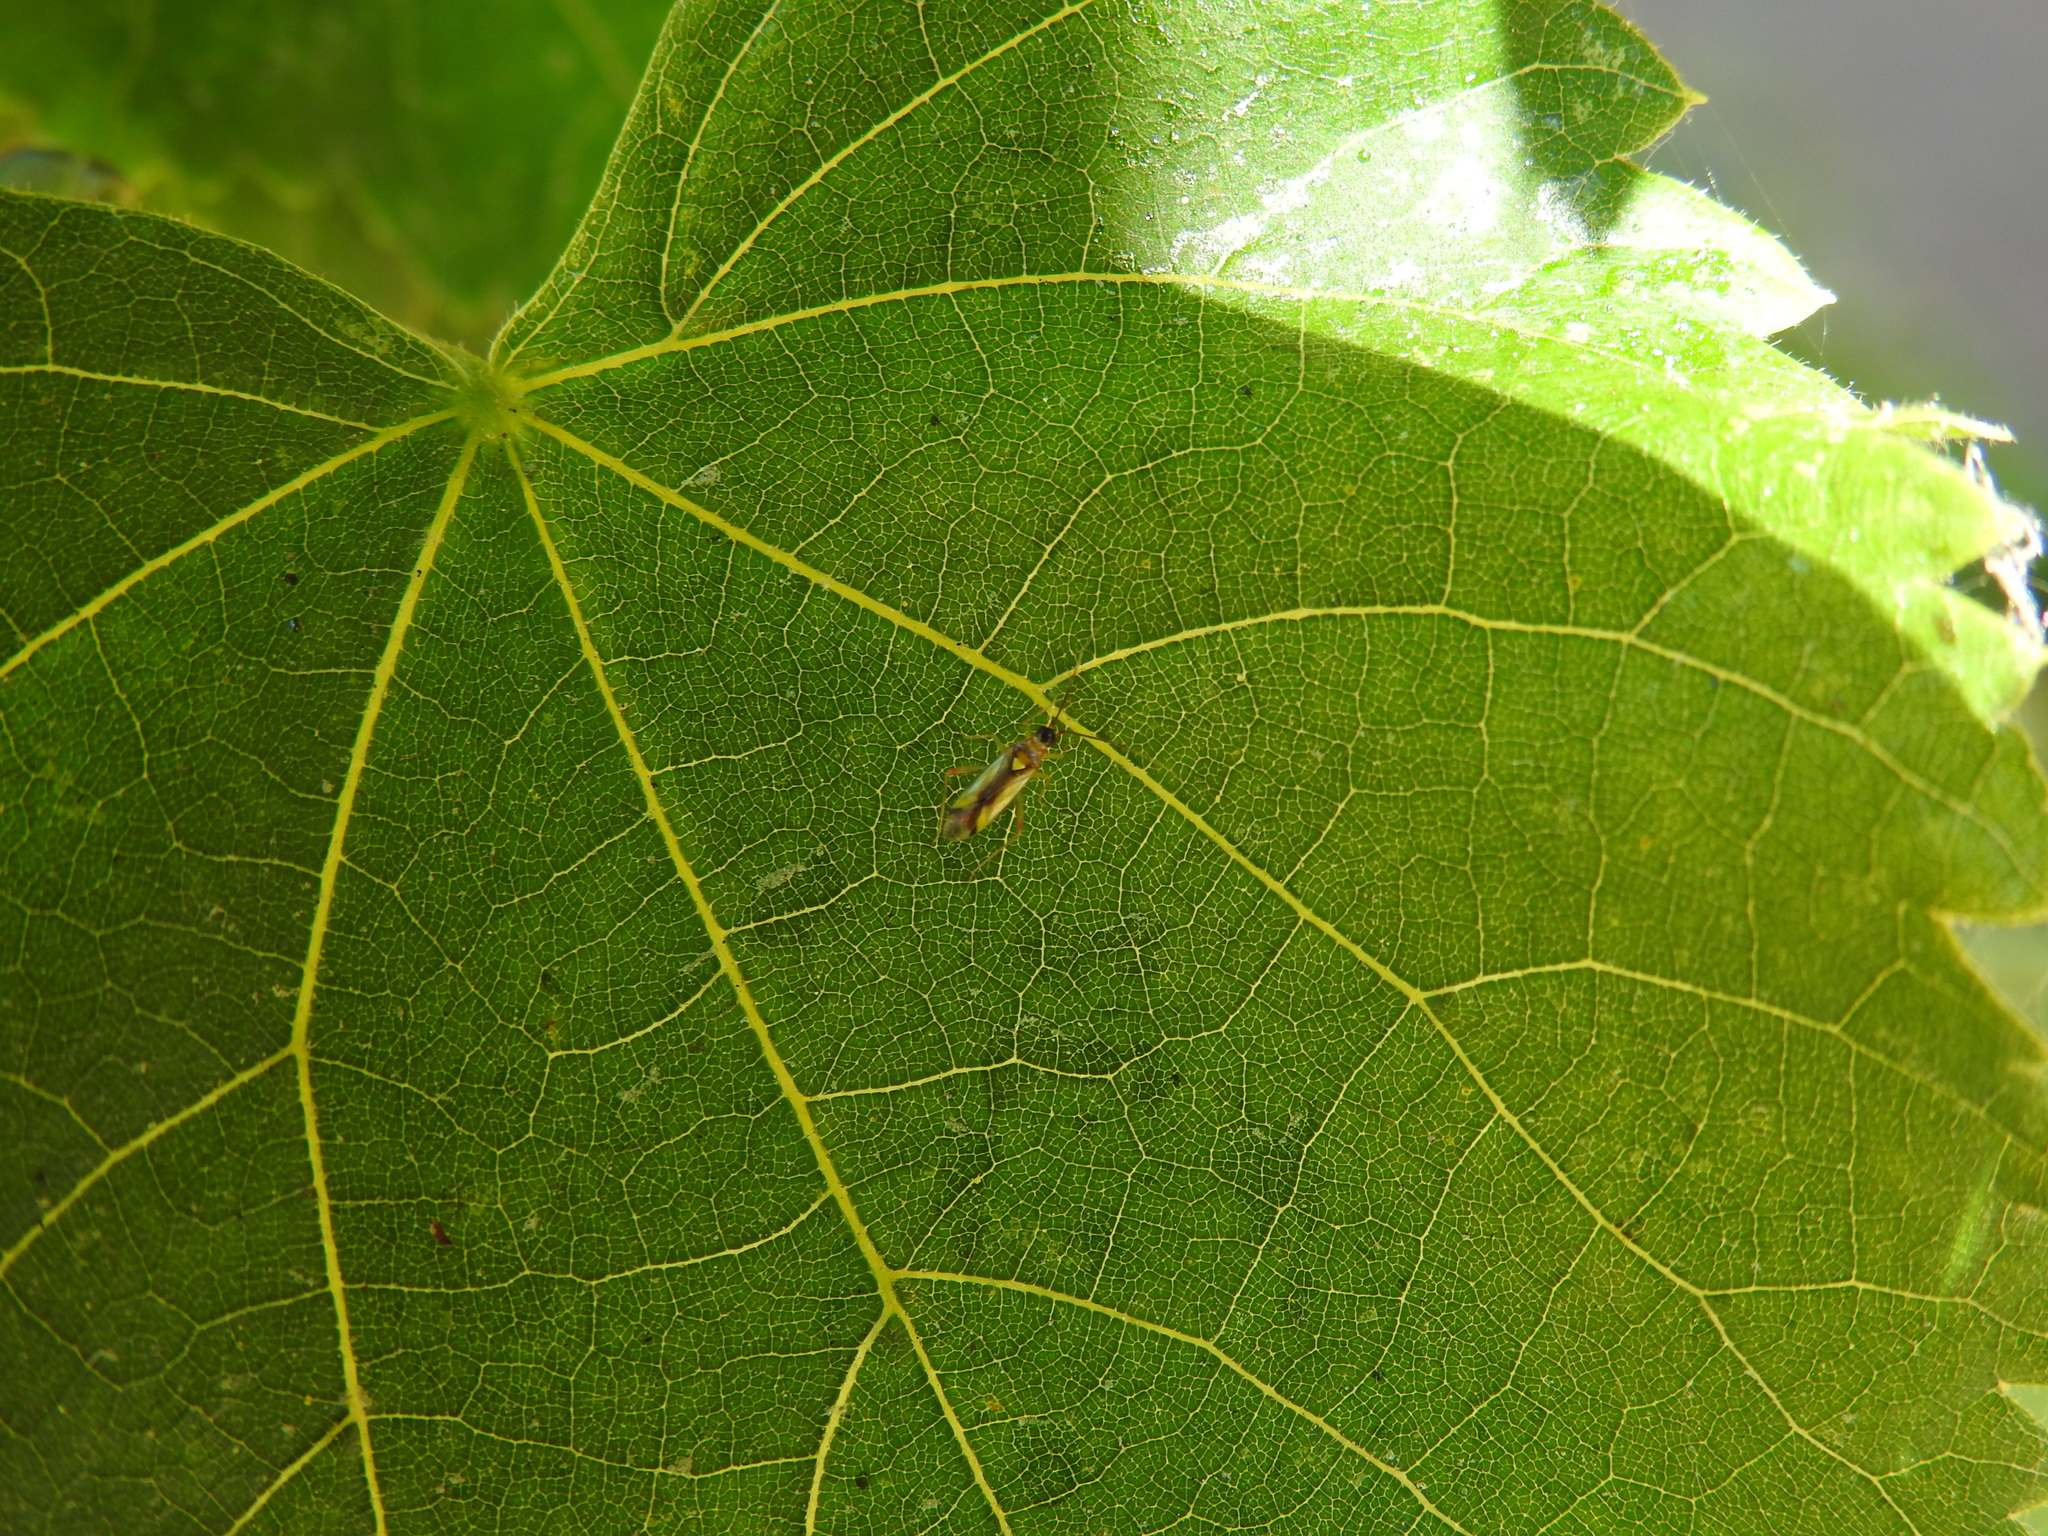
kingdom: Animalia
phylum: Arthropoda
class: Insecta
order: Hemiptera
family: Miridae
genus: Campyloneura
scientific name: Campyloneura virgula
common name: Predatory bug
